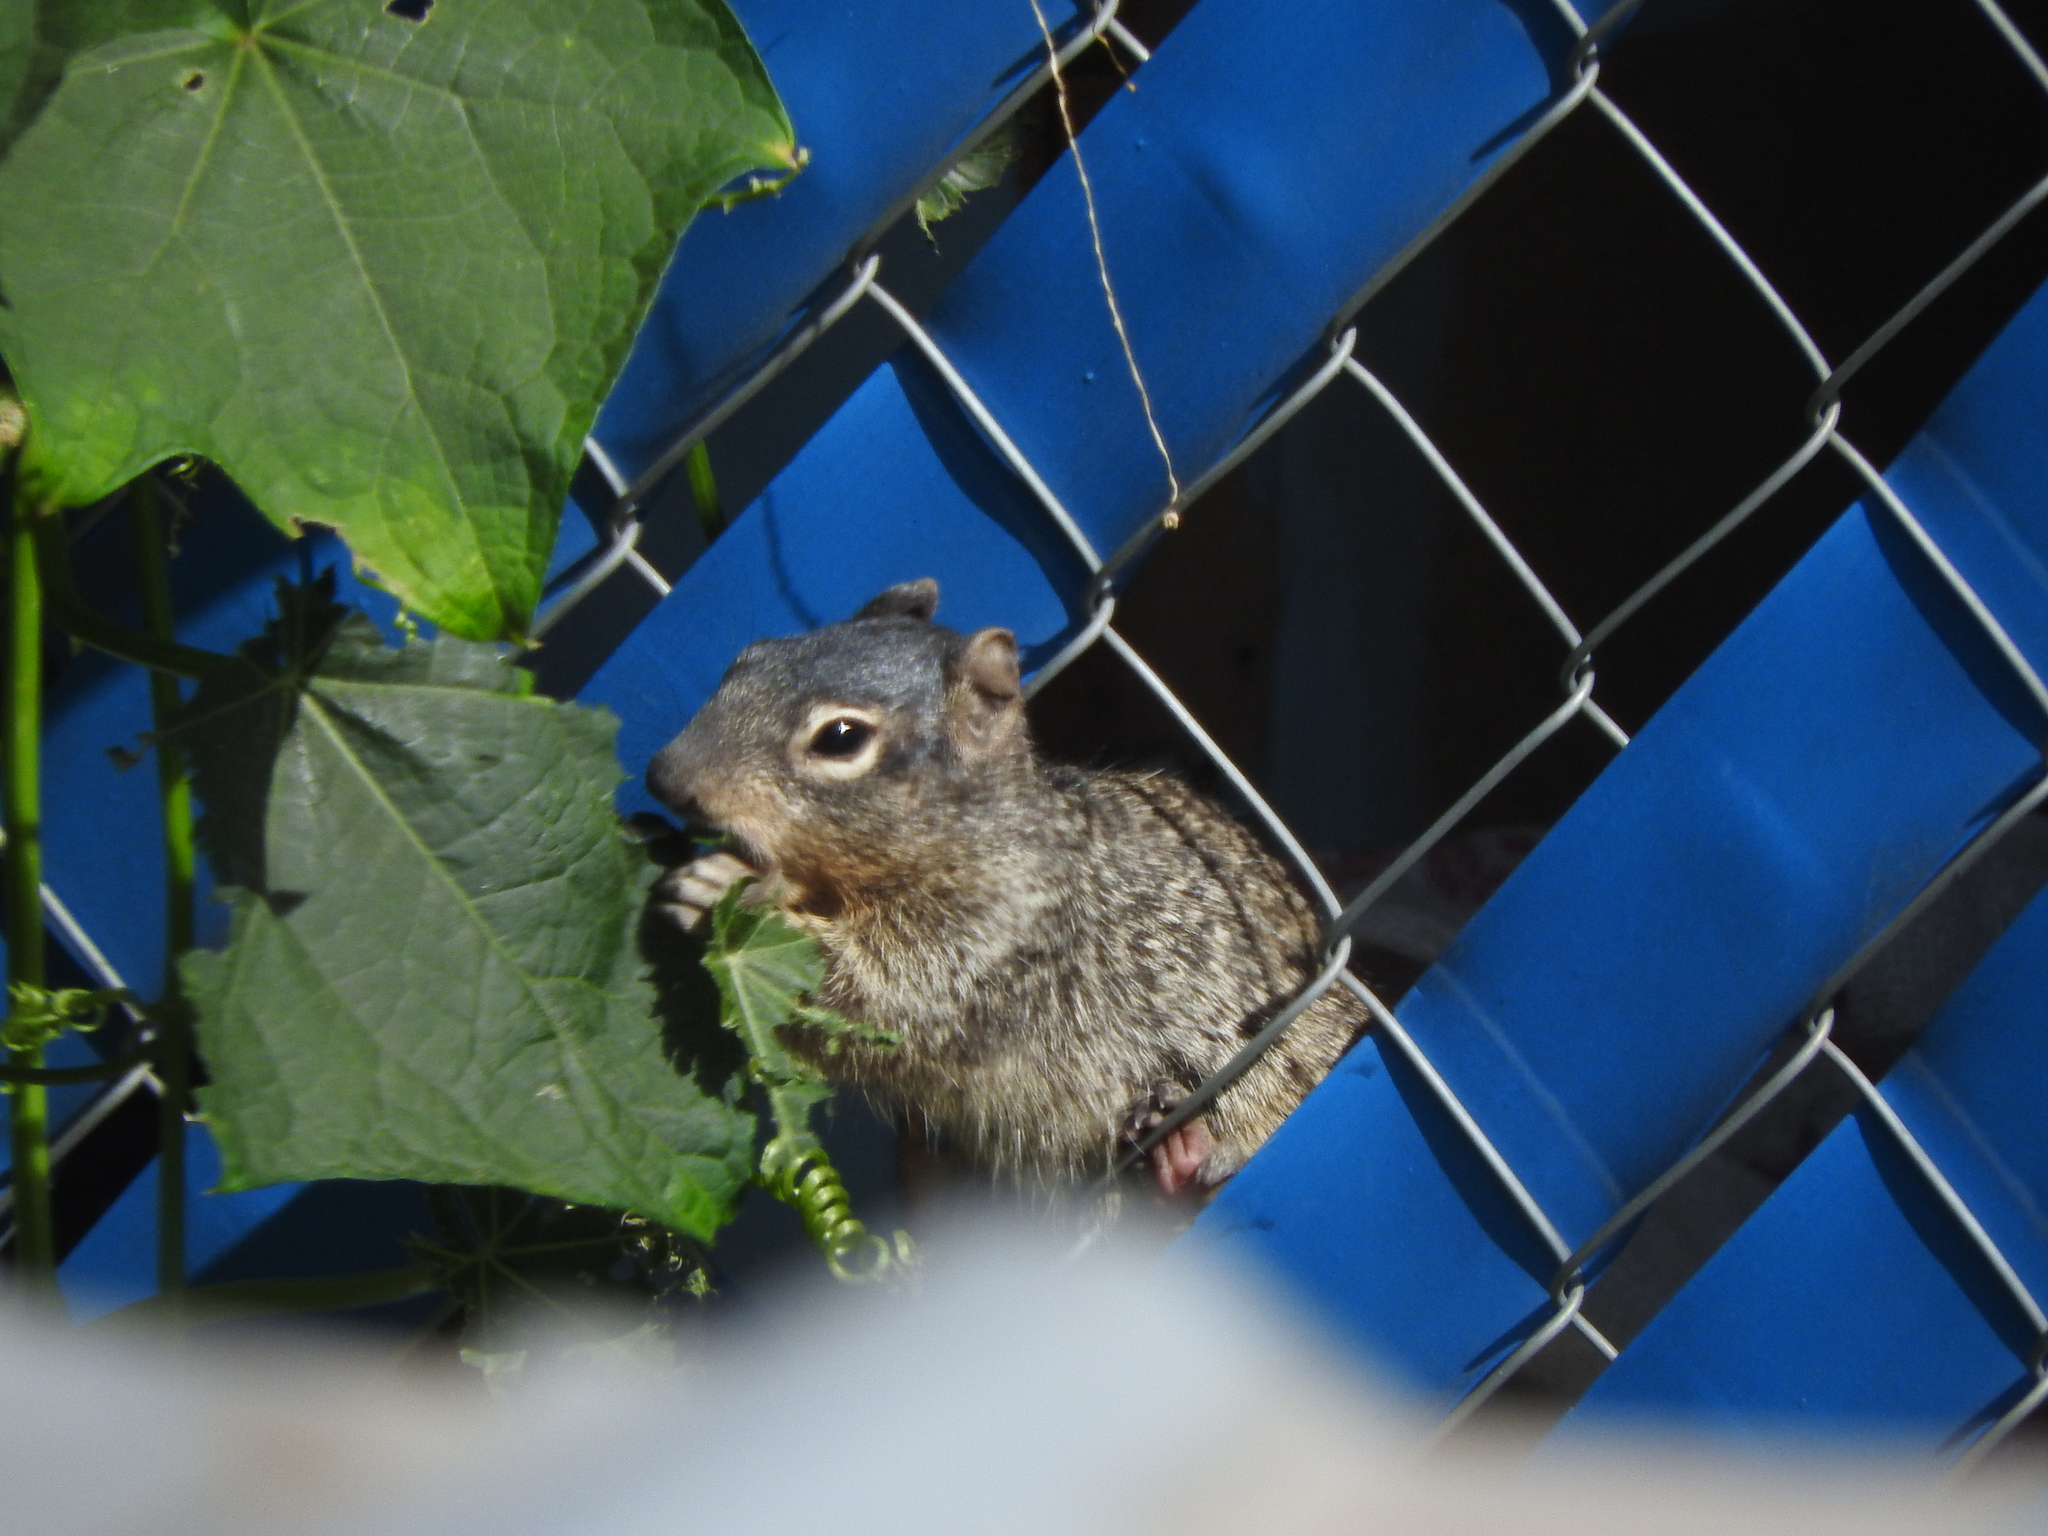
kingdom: Animalia
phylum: Chordata
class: Mammalia
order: Rodentia
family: Sciuridae
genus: Otospermophilus
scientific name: Otospermophilus variegatus
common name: Rock squirrel
